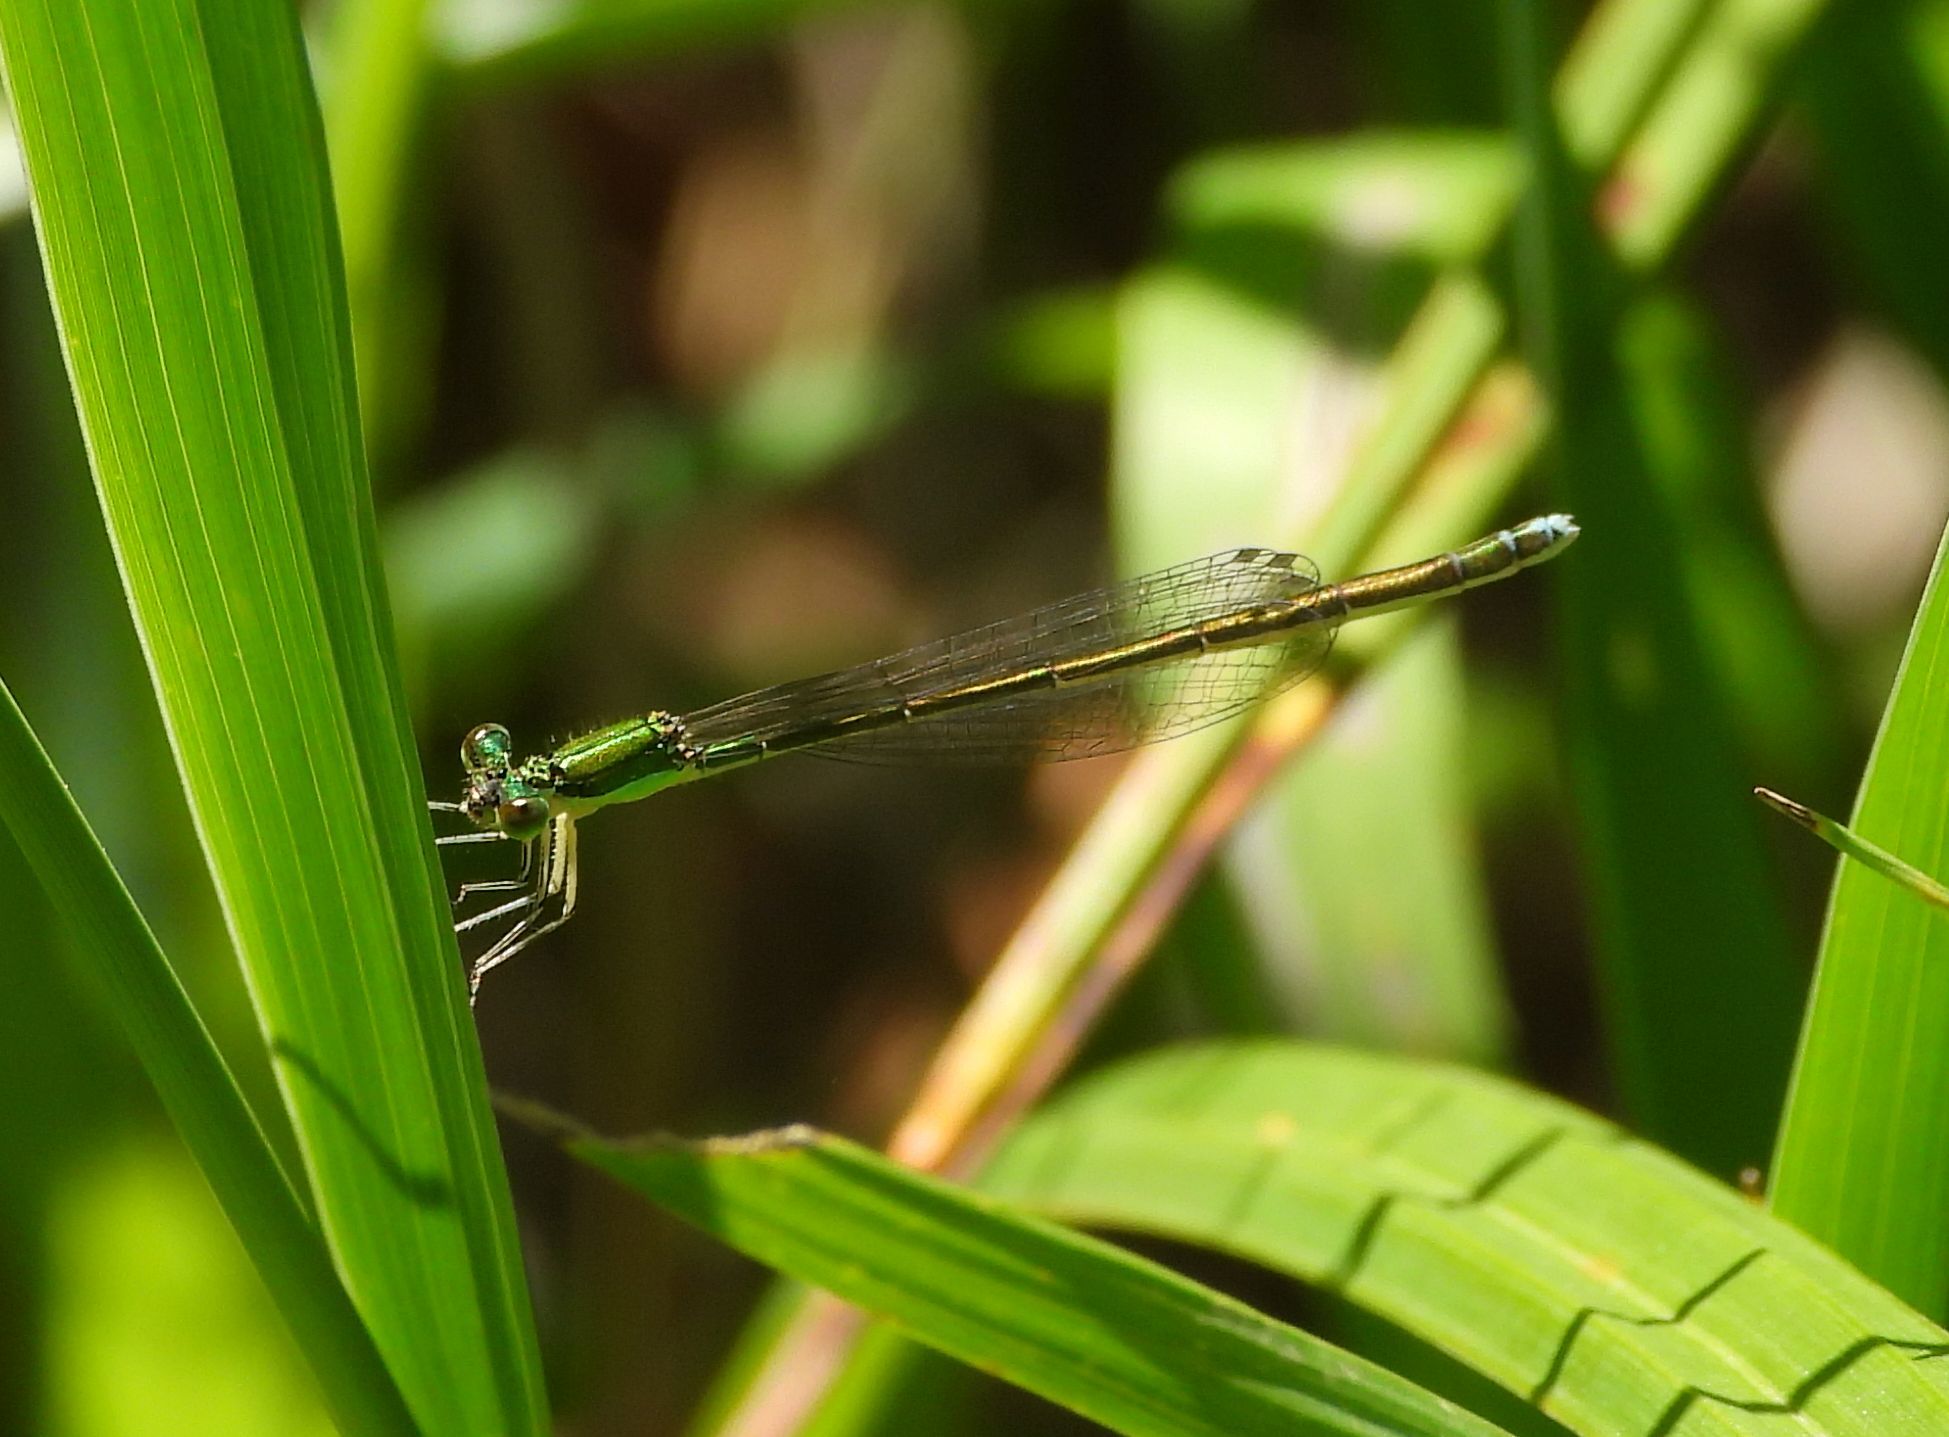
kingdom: Animalia
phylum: Arthropoda
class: Insecta
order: Odonata
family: Coenagrionidae
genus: Nehalennia
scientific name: Nehalennia irene
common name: Sedge sprite
